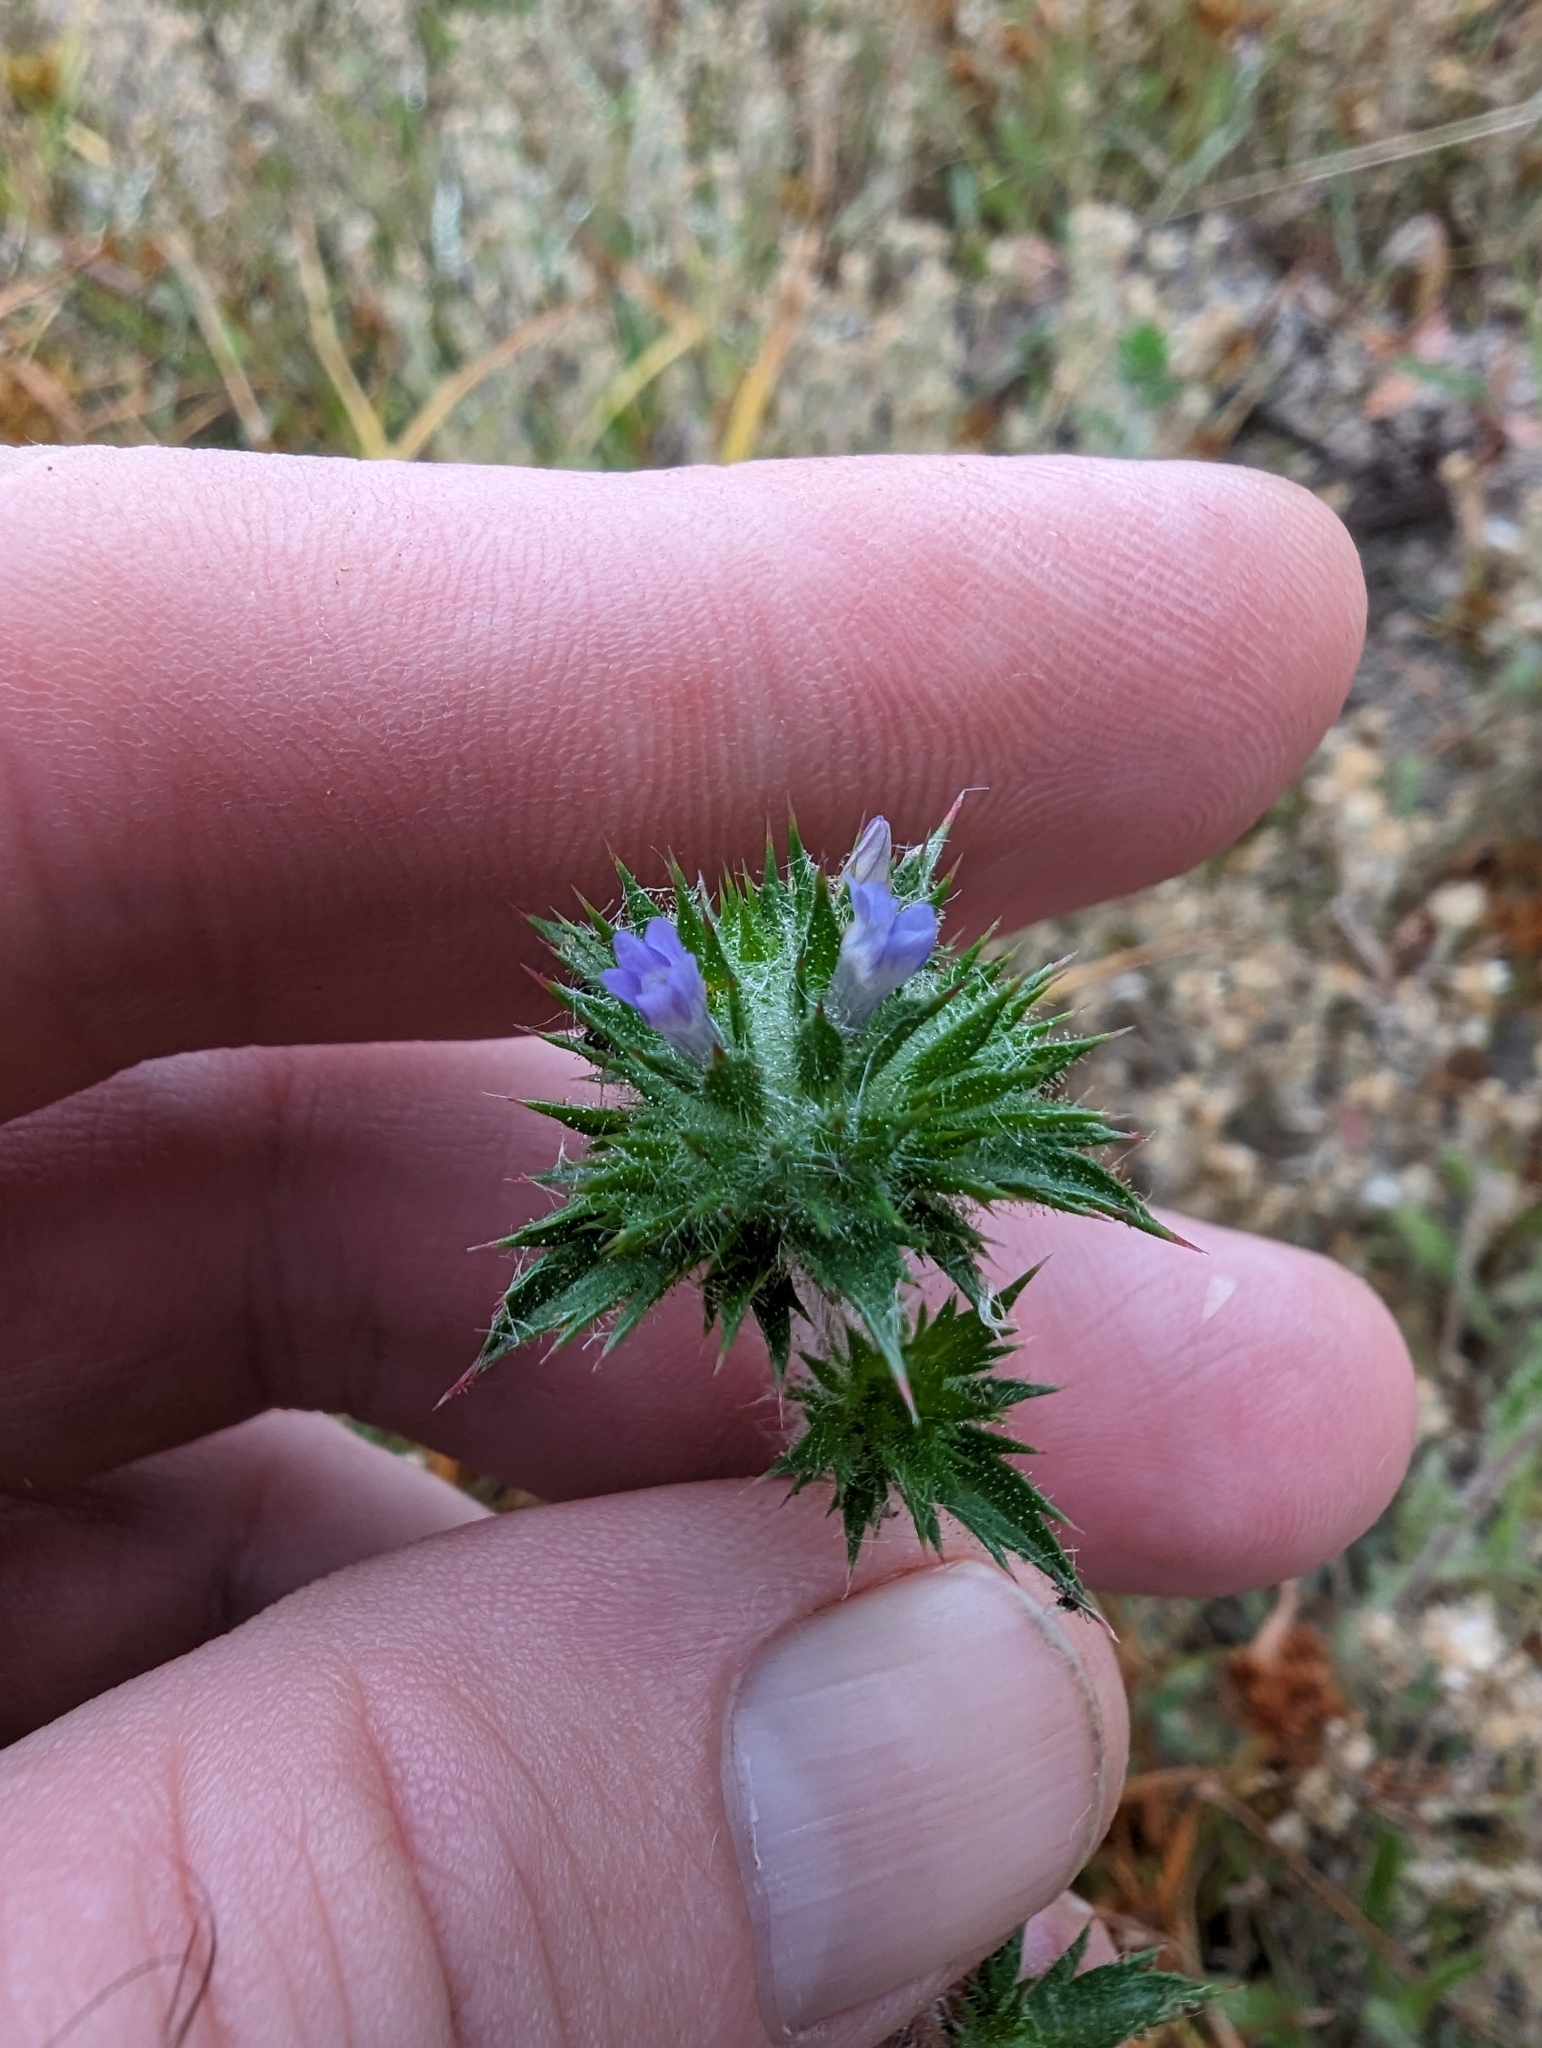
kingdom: Plantae
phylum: Tracheophyta
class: Magnoliopsida
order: Ericales
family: Polemoniaceae
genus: Navarretia
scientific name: Navarretia squarrosa
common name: Skunkweed
